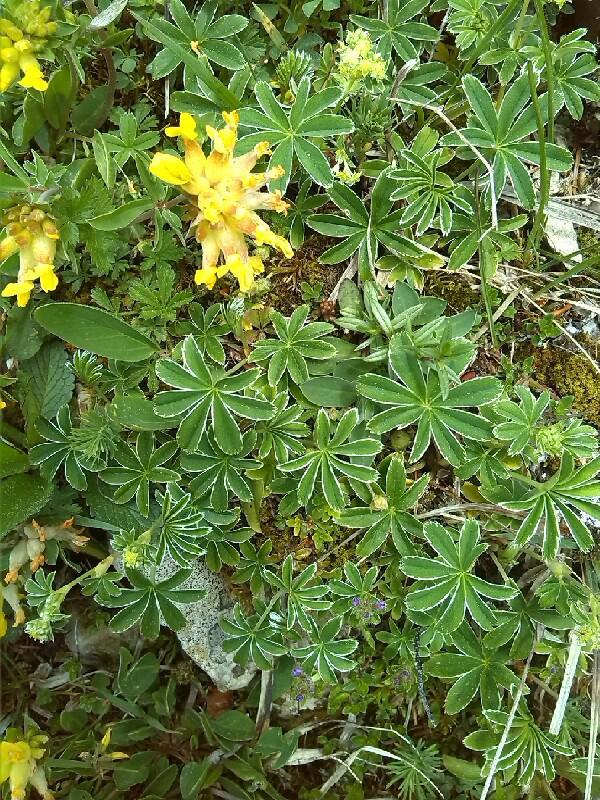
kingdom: Plantae
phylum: Tracheophyta
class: Magnoliopsida
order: Rosales
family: Rosaceae
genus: Alchemilla
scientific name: Alchemilla monticola
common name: Hairy lady's mantle
